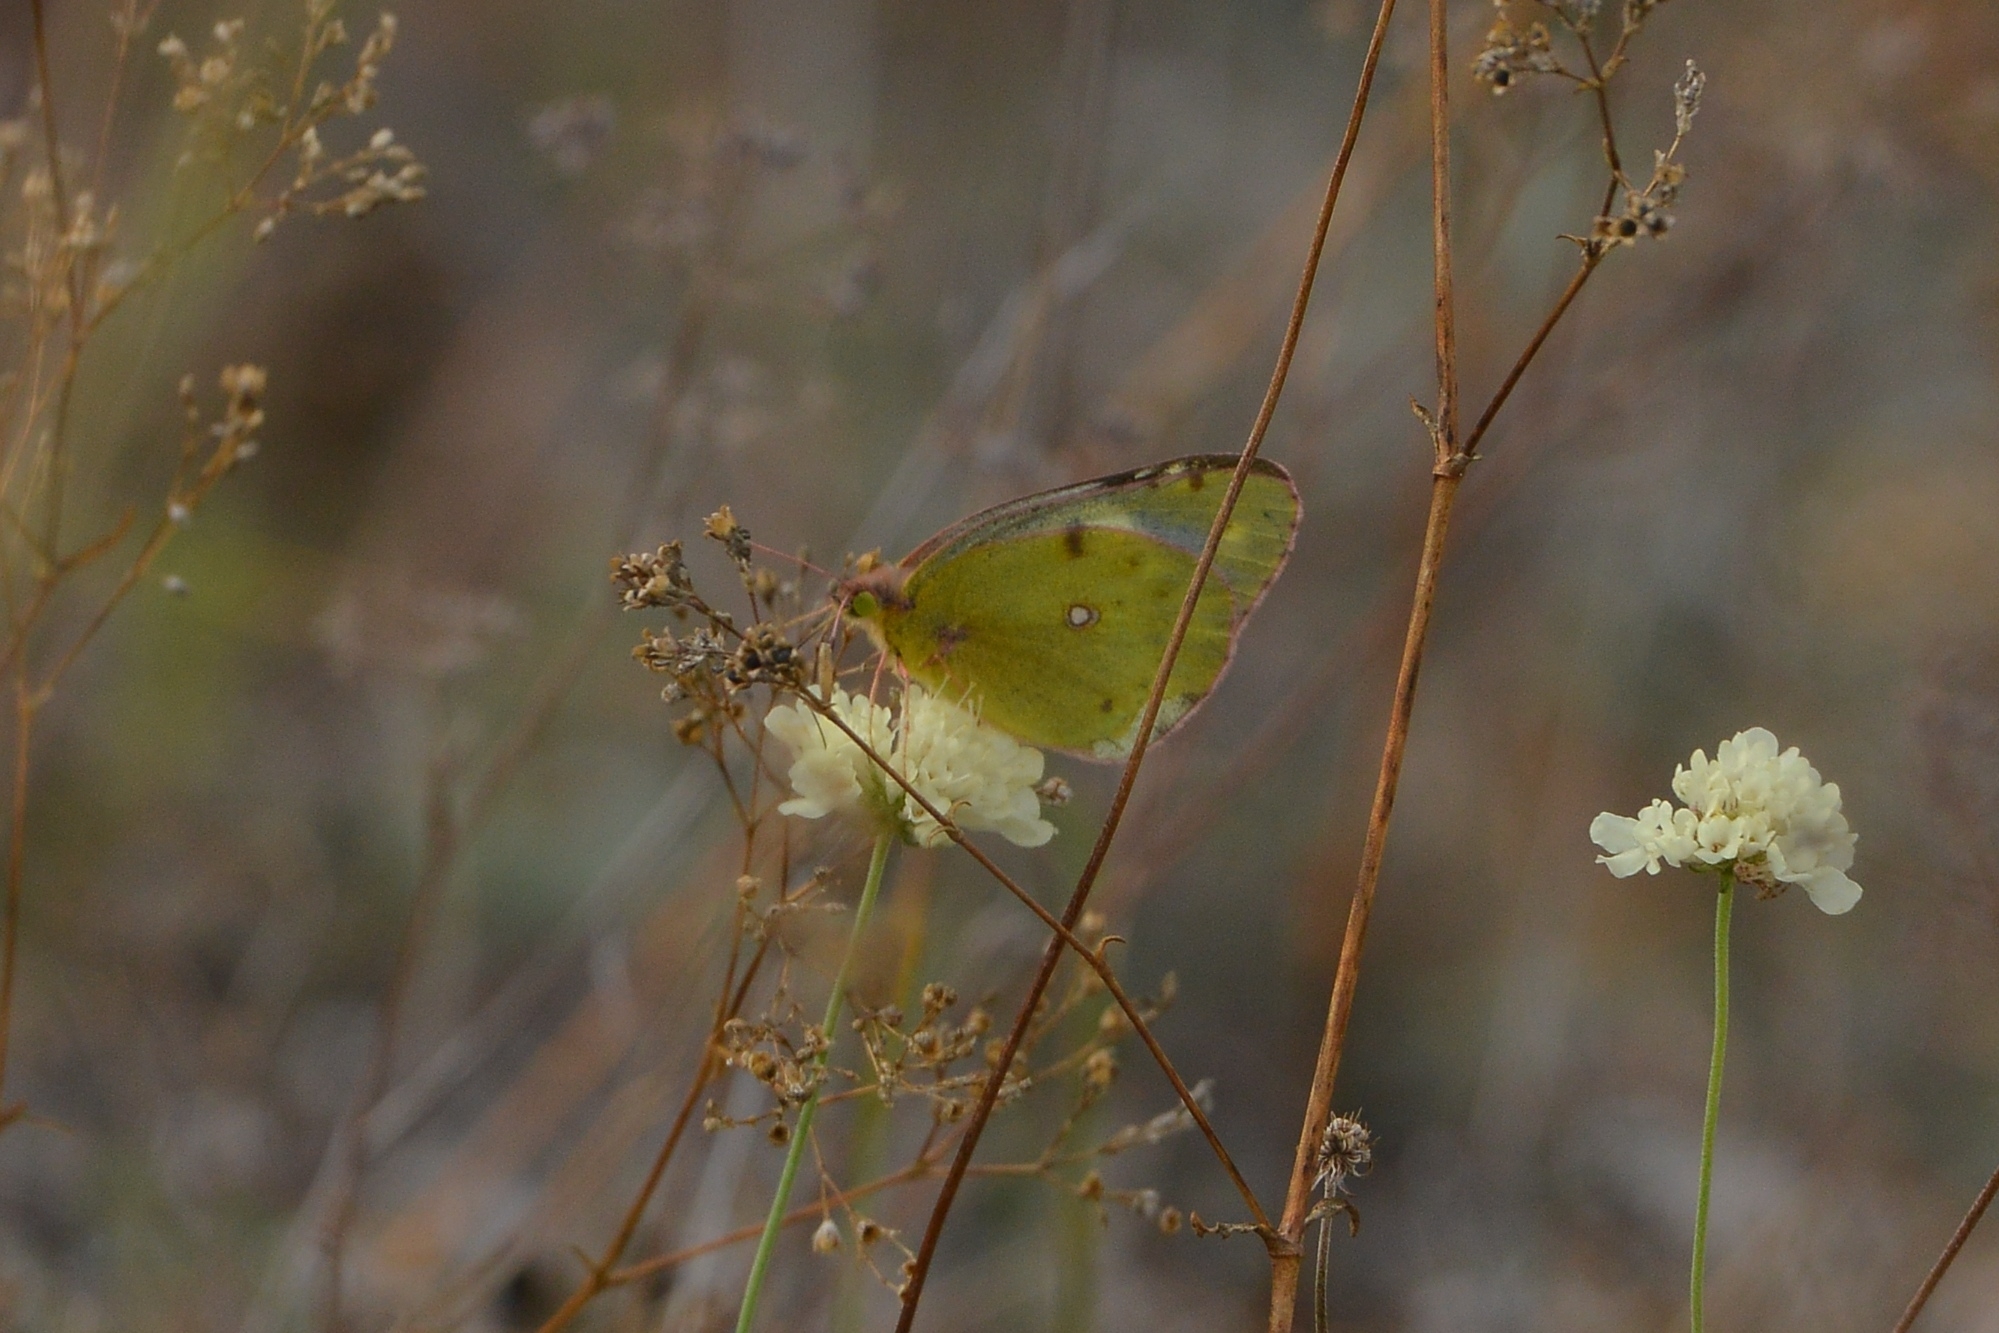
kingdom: Animalia
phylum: Arthropoda
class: Insecta
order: Lepidoptera
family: Pieridae
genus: Colias
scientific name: Colias hyale
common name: Pale clouded yellow
